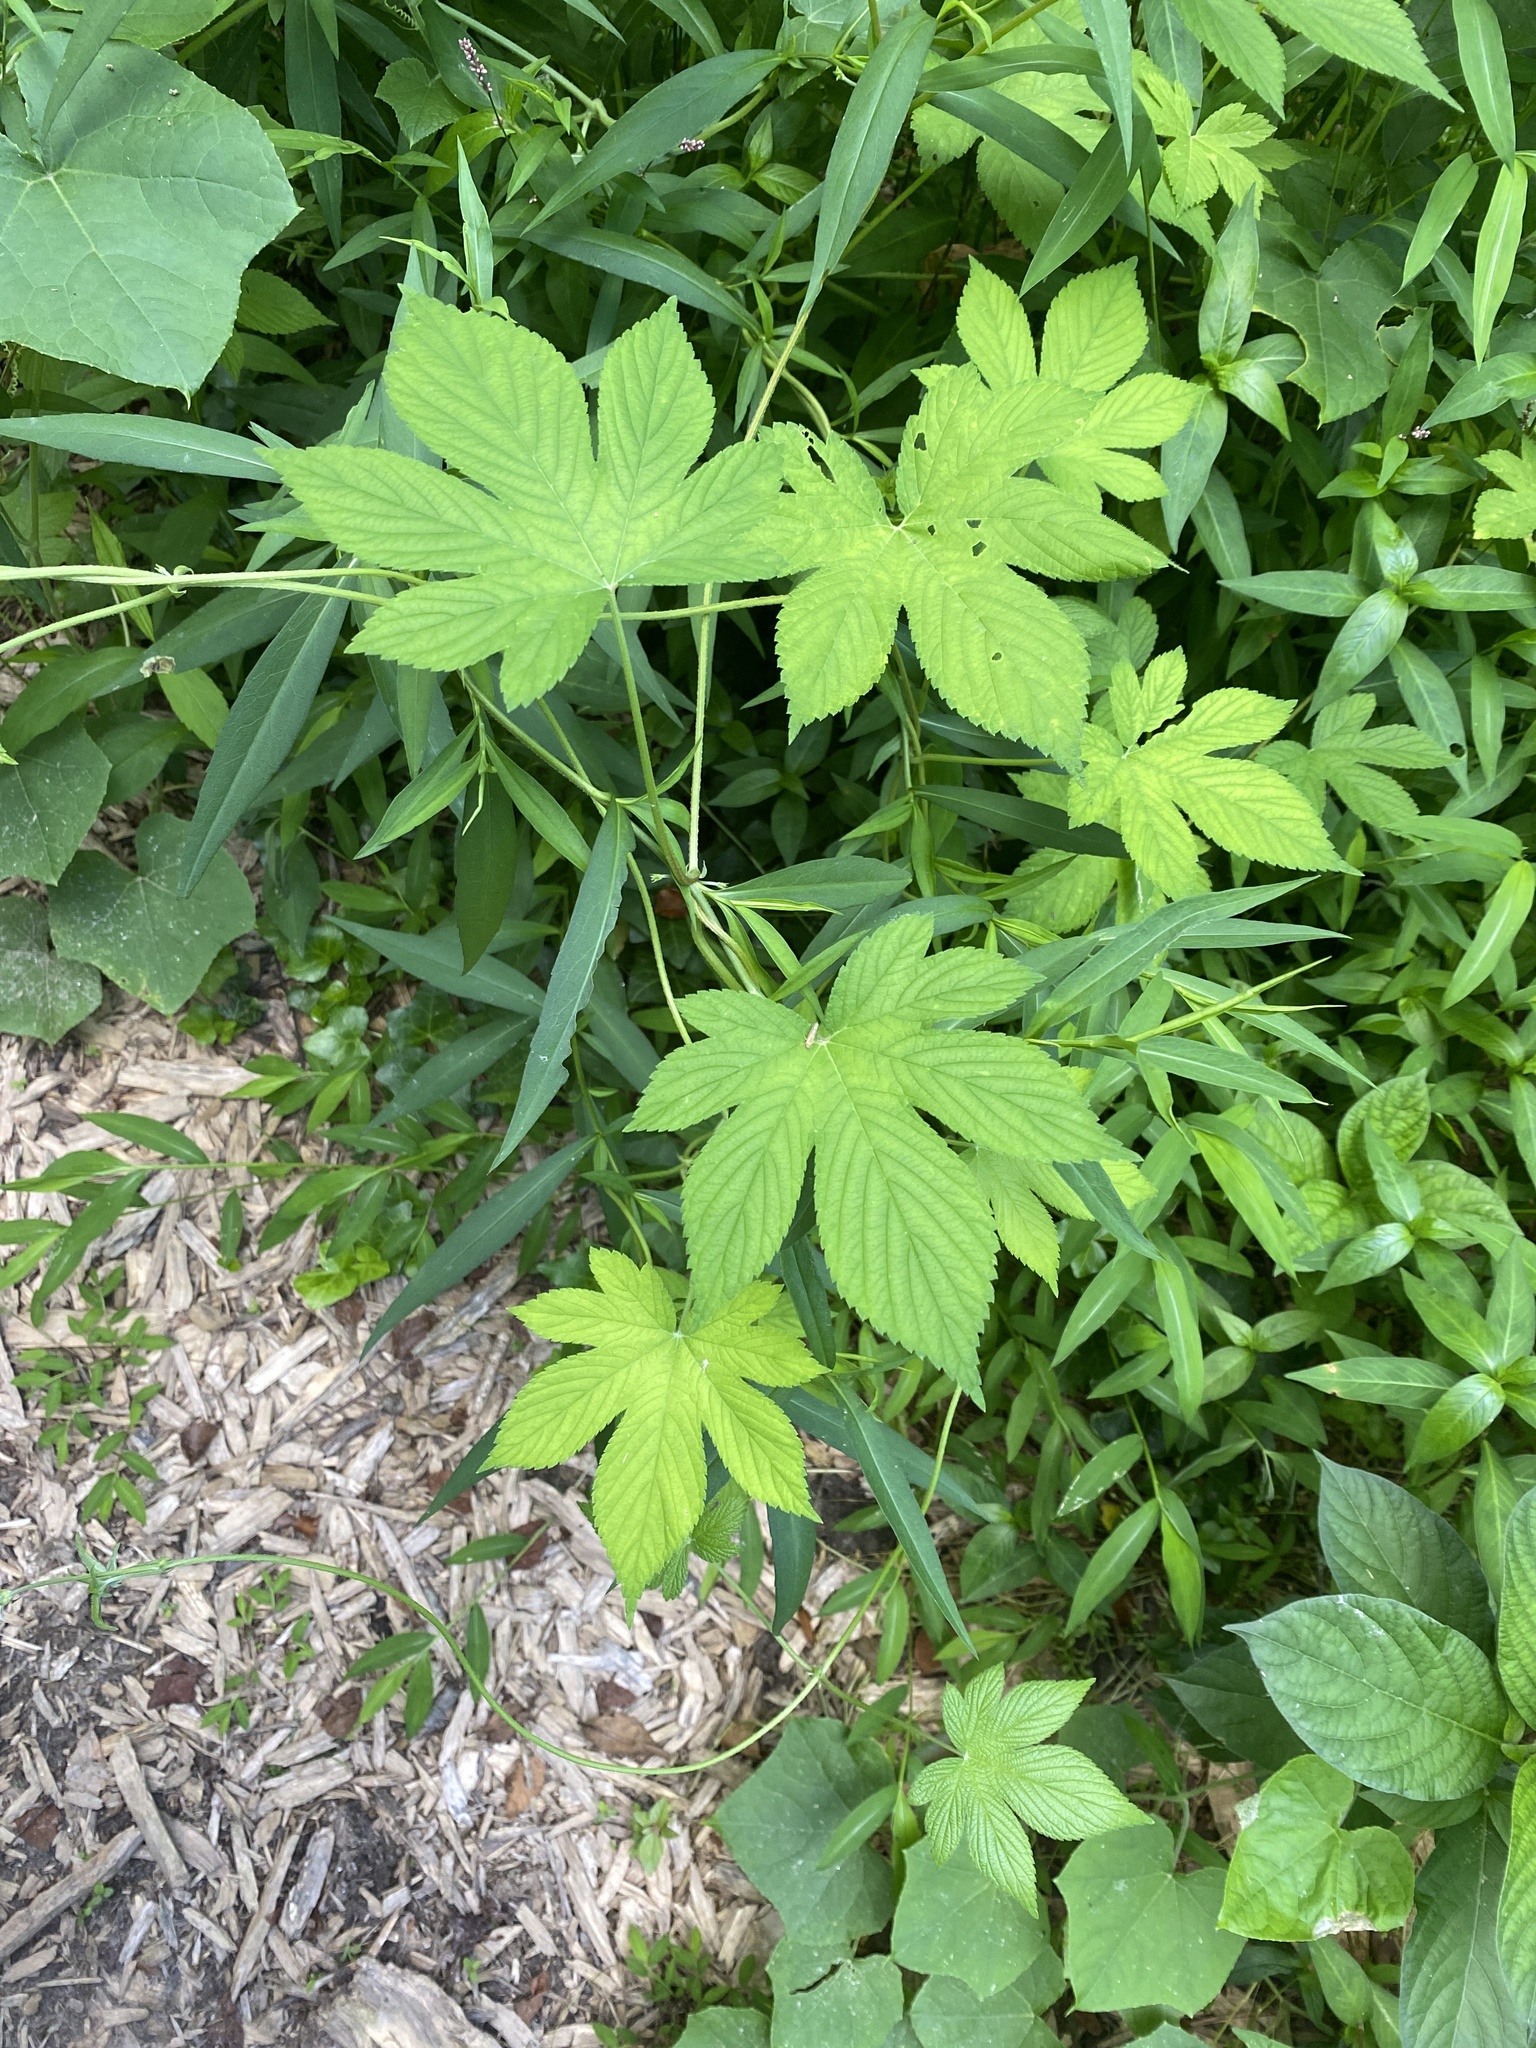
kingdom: Plantae
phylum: Tracheophyta
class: Magnoliopsida
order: Rosales
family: Cannabaceae
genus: Humulus
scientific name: Humulus scandens
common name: Japanese hop
